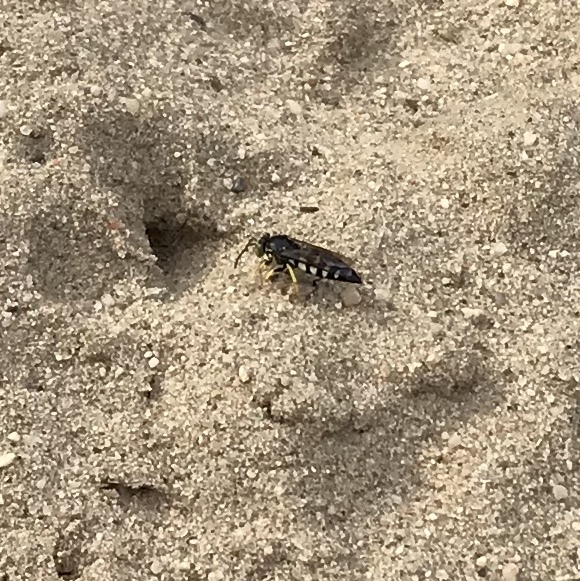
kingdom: Animalia
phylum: Arthropoda
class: Insecta
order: Hymenoptera
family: Crabronidae
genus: Bicyrtes
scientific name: Bicyrtes quadrifasciatus
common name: Four-banded stink bug hunter wasp
